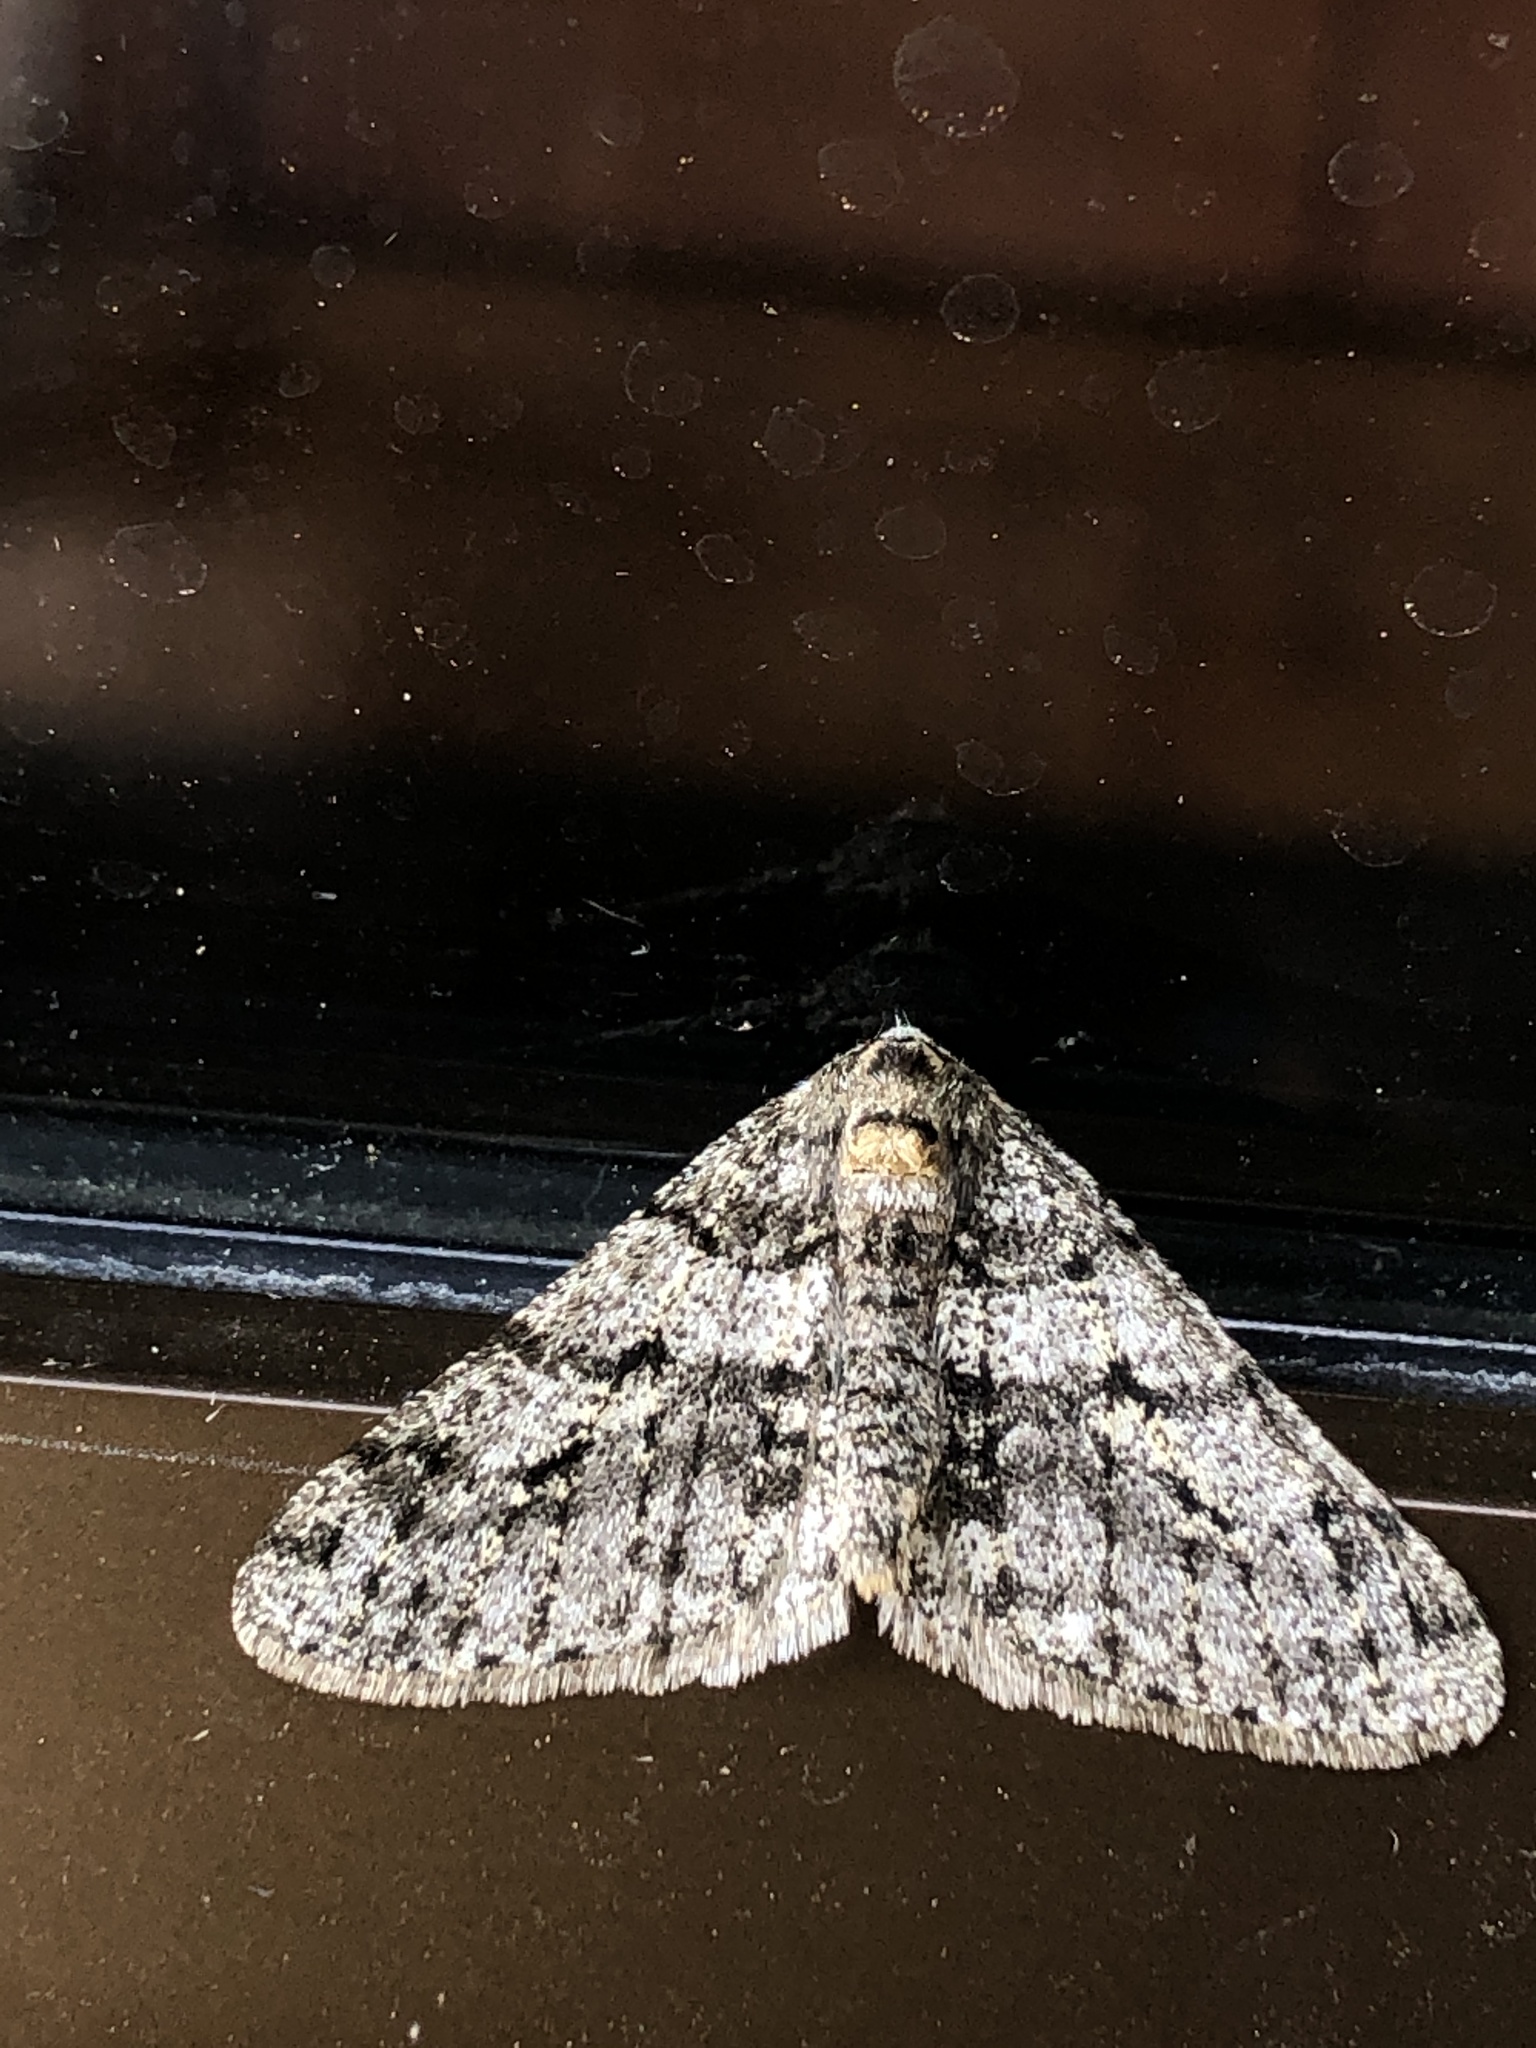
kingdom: Animalia
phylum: Arthropoda
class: Insecta
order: Lepidoptera
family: Geometridae
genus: Phigalia
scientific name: Phigalia titea
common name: Spiny looper
